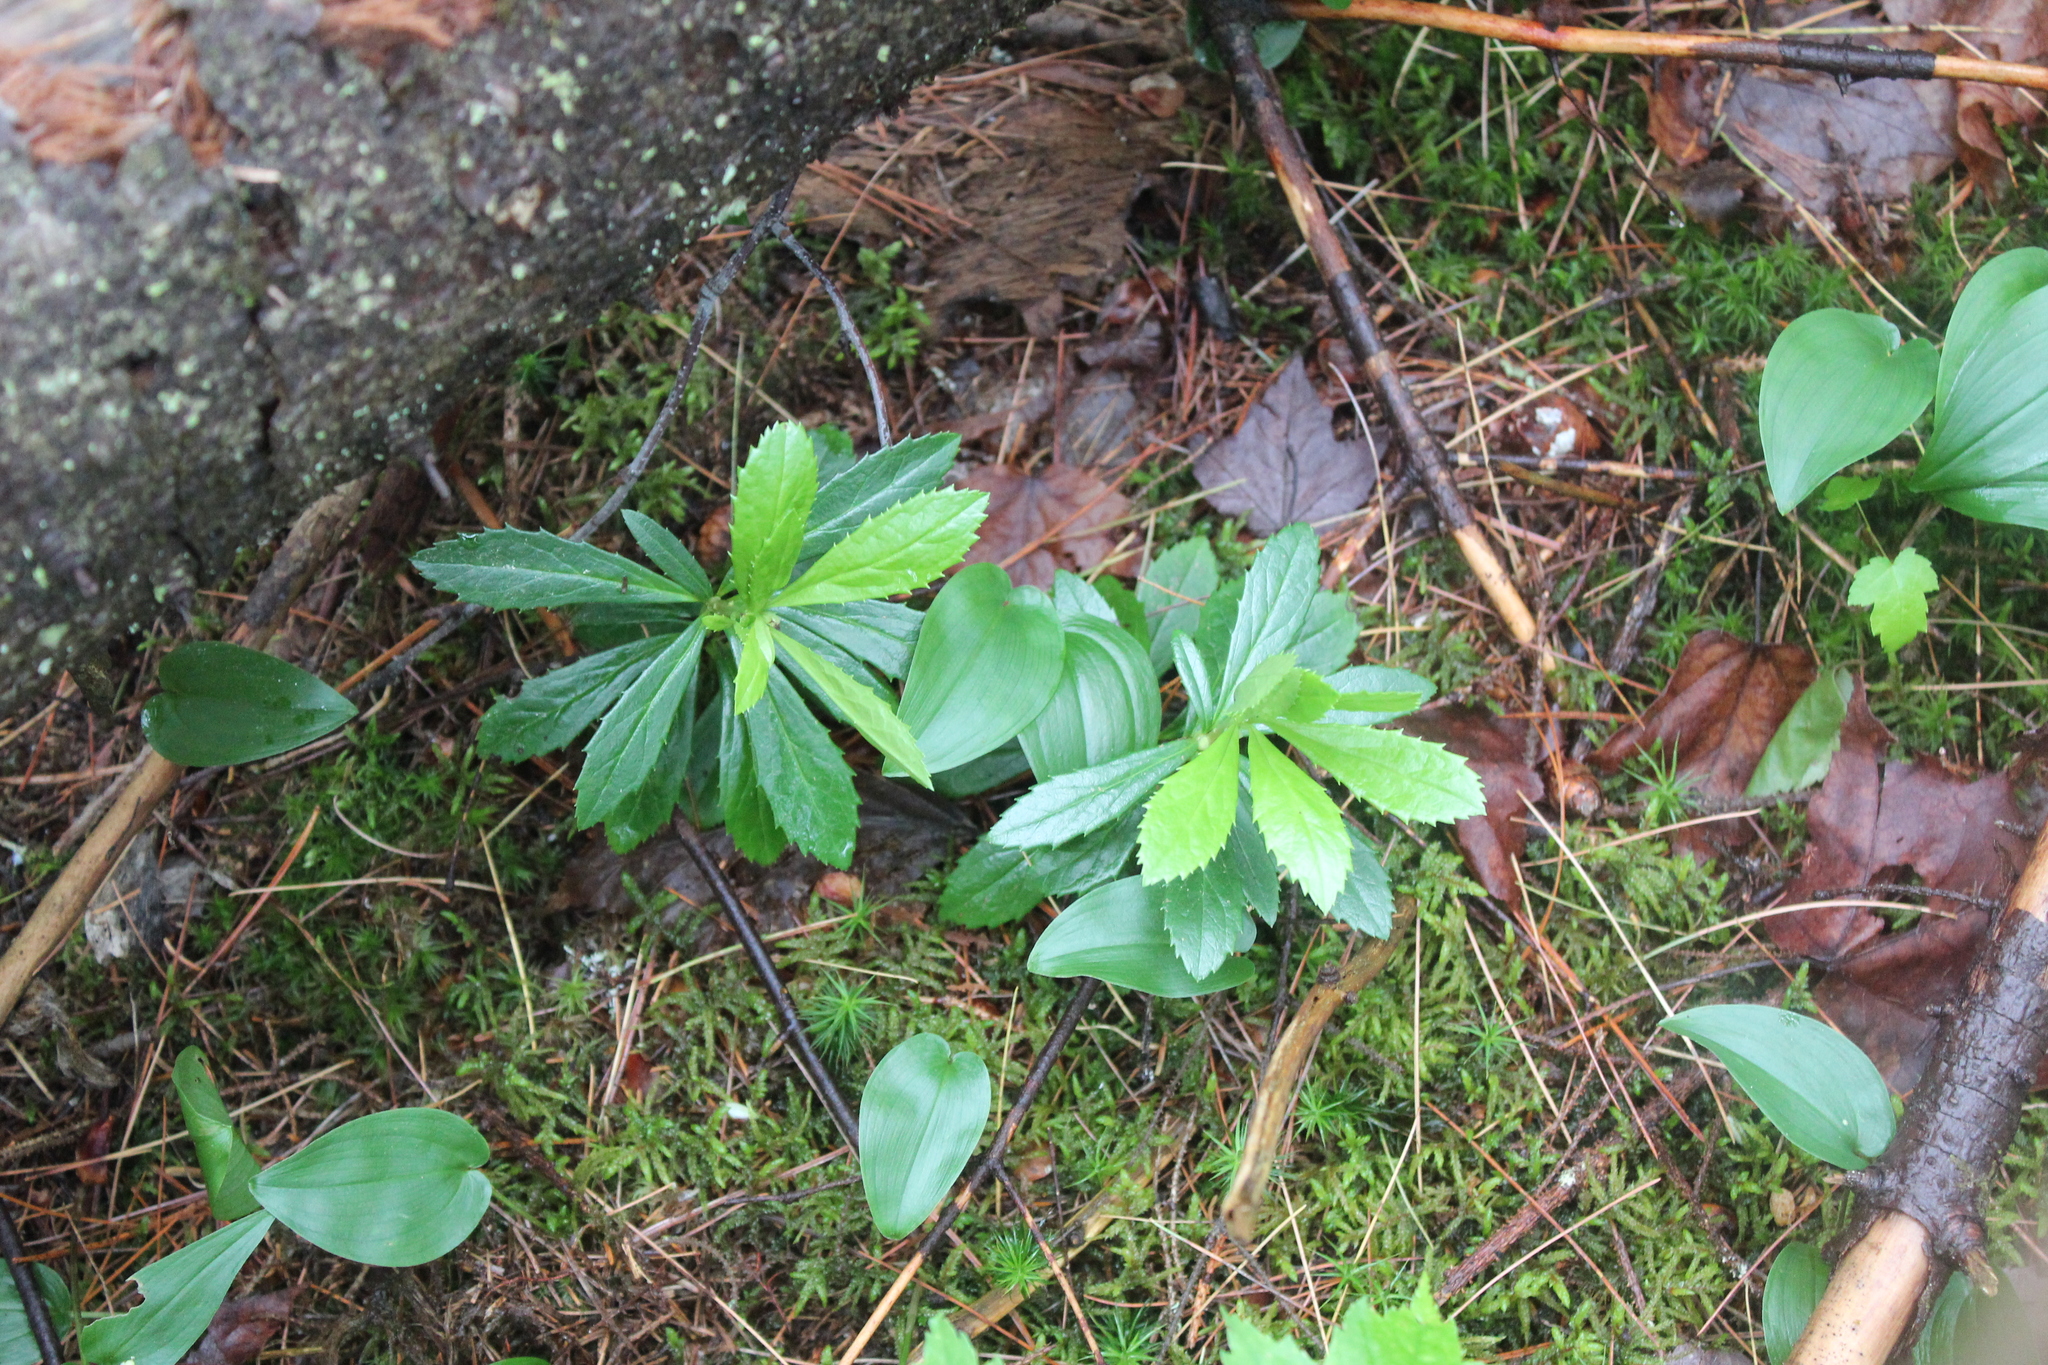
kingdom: Plantae
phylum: Tracheophyta
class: Magnoliopsida
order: Ericales
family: Ericaceae
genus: Chimaphila
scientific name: Chimaphila umbellata
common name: Pipsissewa
